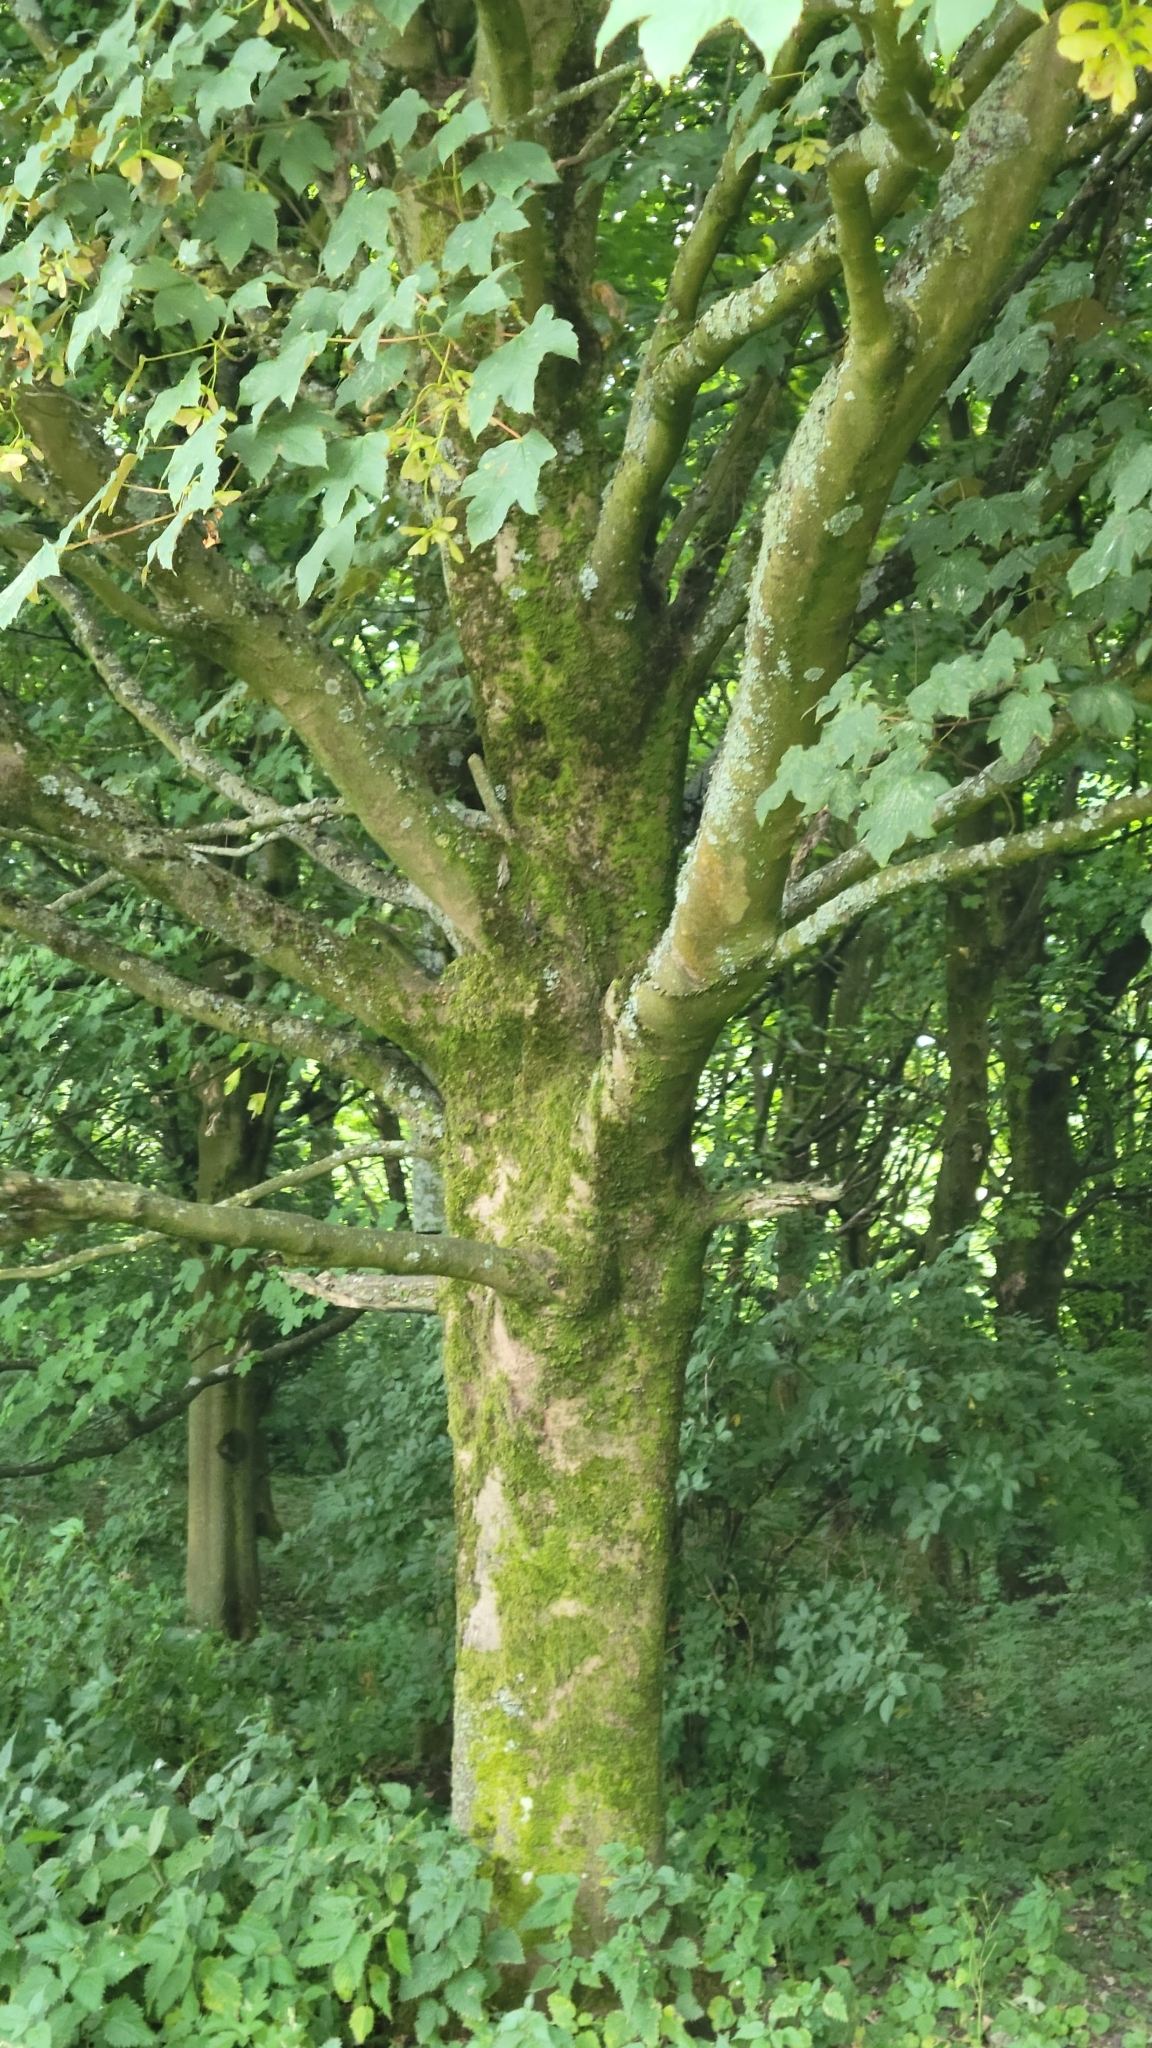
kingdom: Plantae
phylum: Tracheophyta
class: Magnoliopsida
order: Sapindales
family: Sapindaceae
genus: Acer
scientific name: Acer pseudoplatanus
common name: Sycamore
